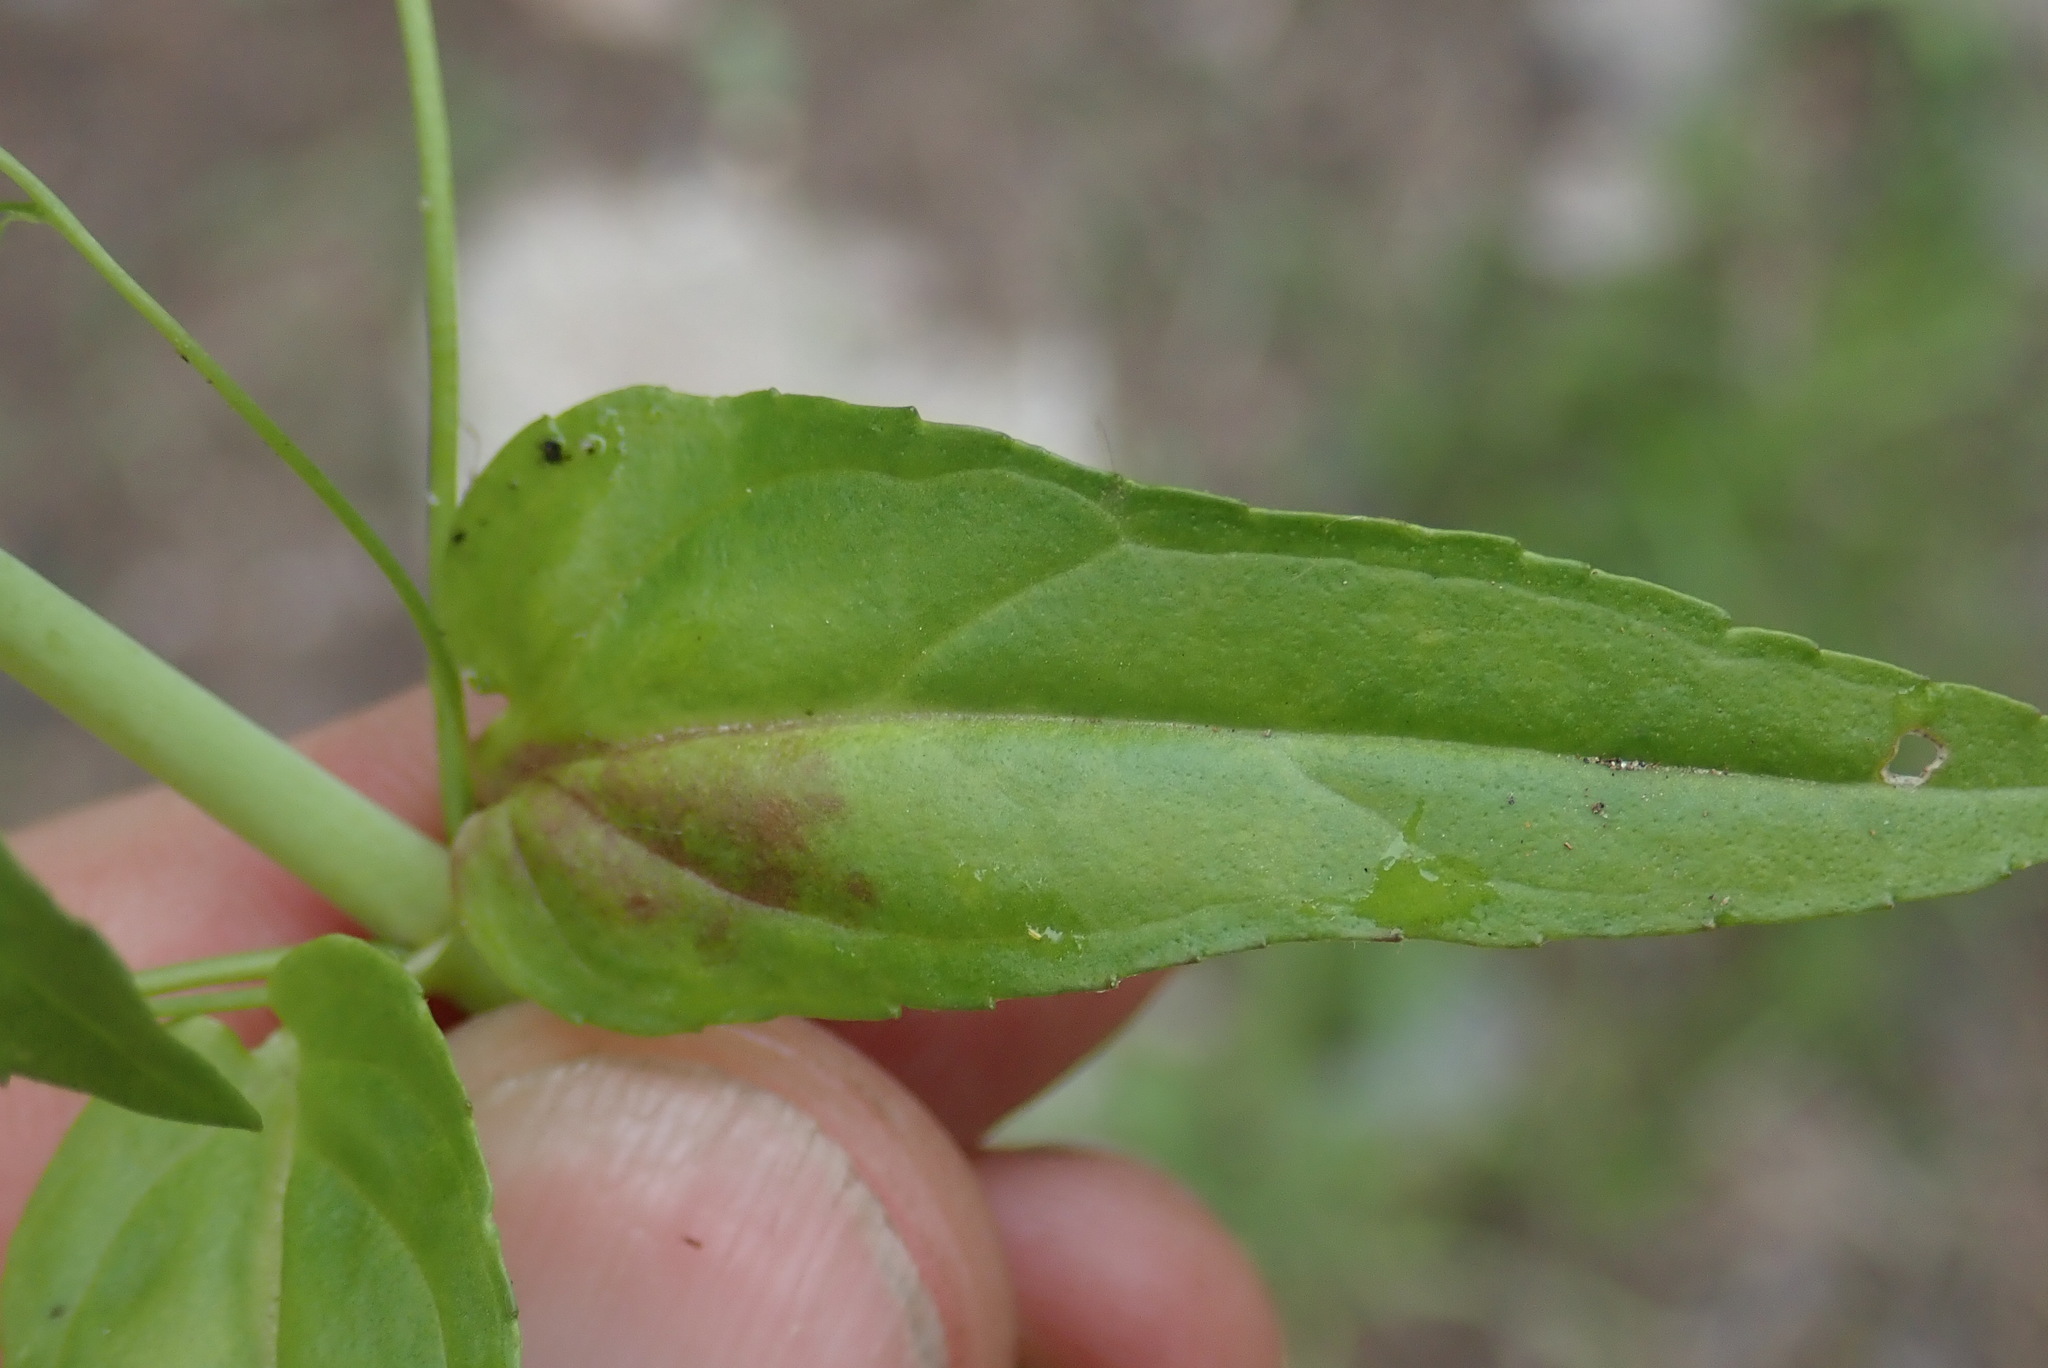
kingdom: Plantae
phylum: Tracheophyta
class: Magnoliopsida
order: Lamiales
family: Plantaginaceae
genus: Veronica
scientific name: Veronica americana
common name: American brooklime
